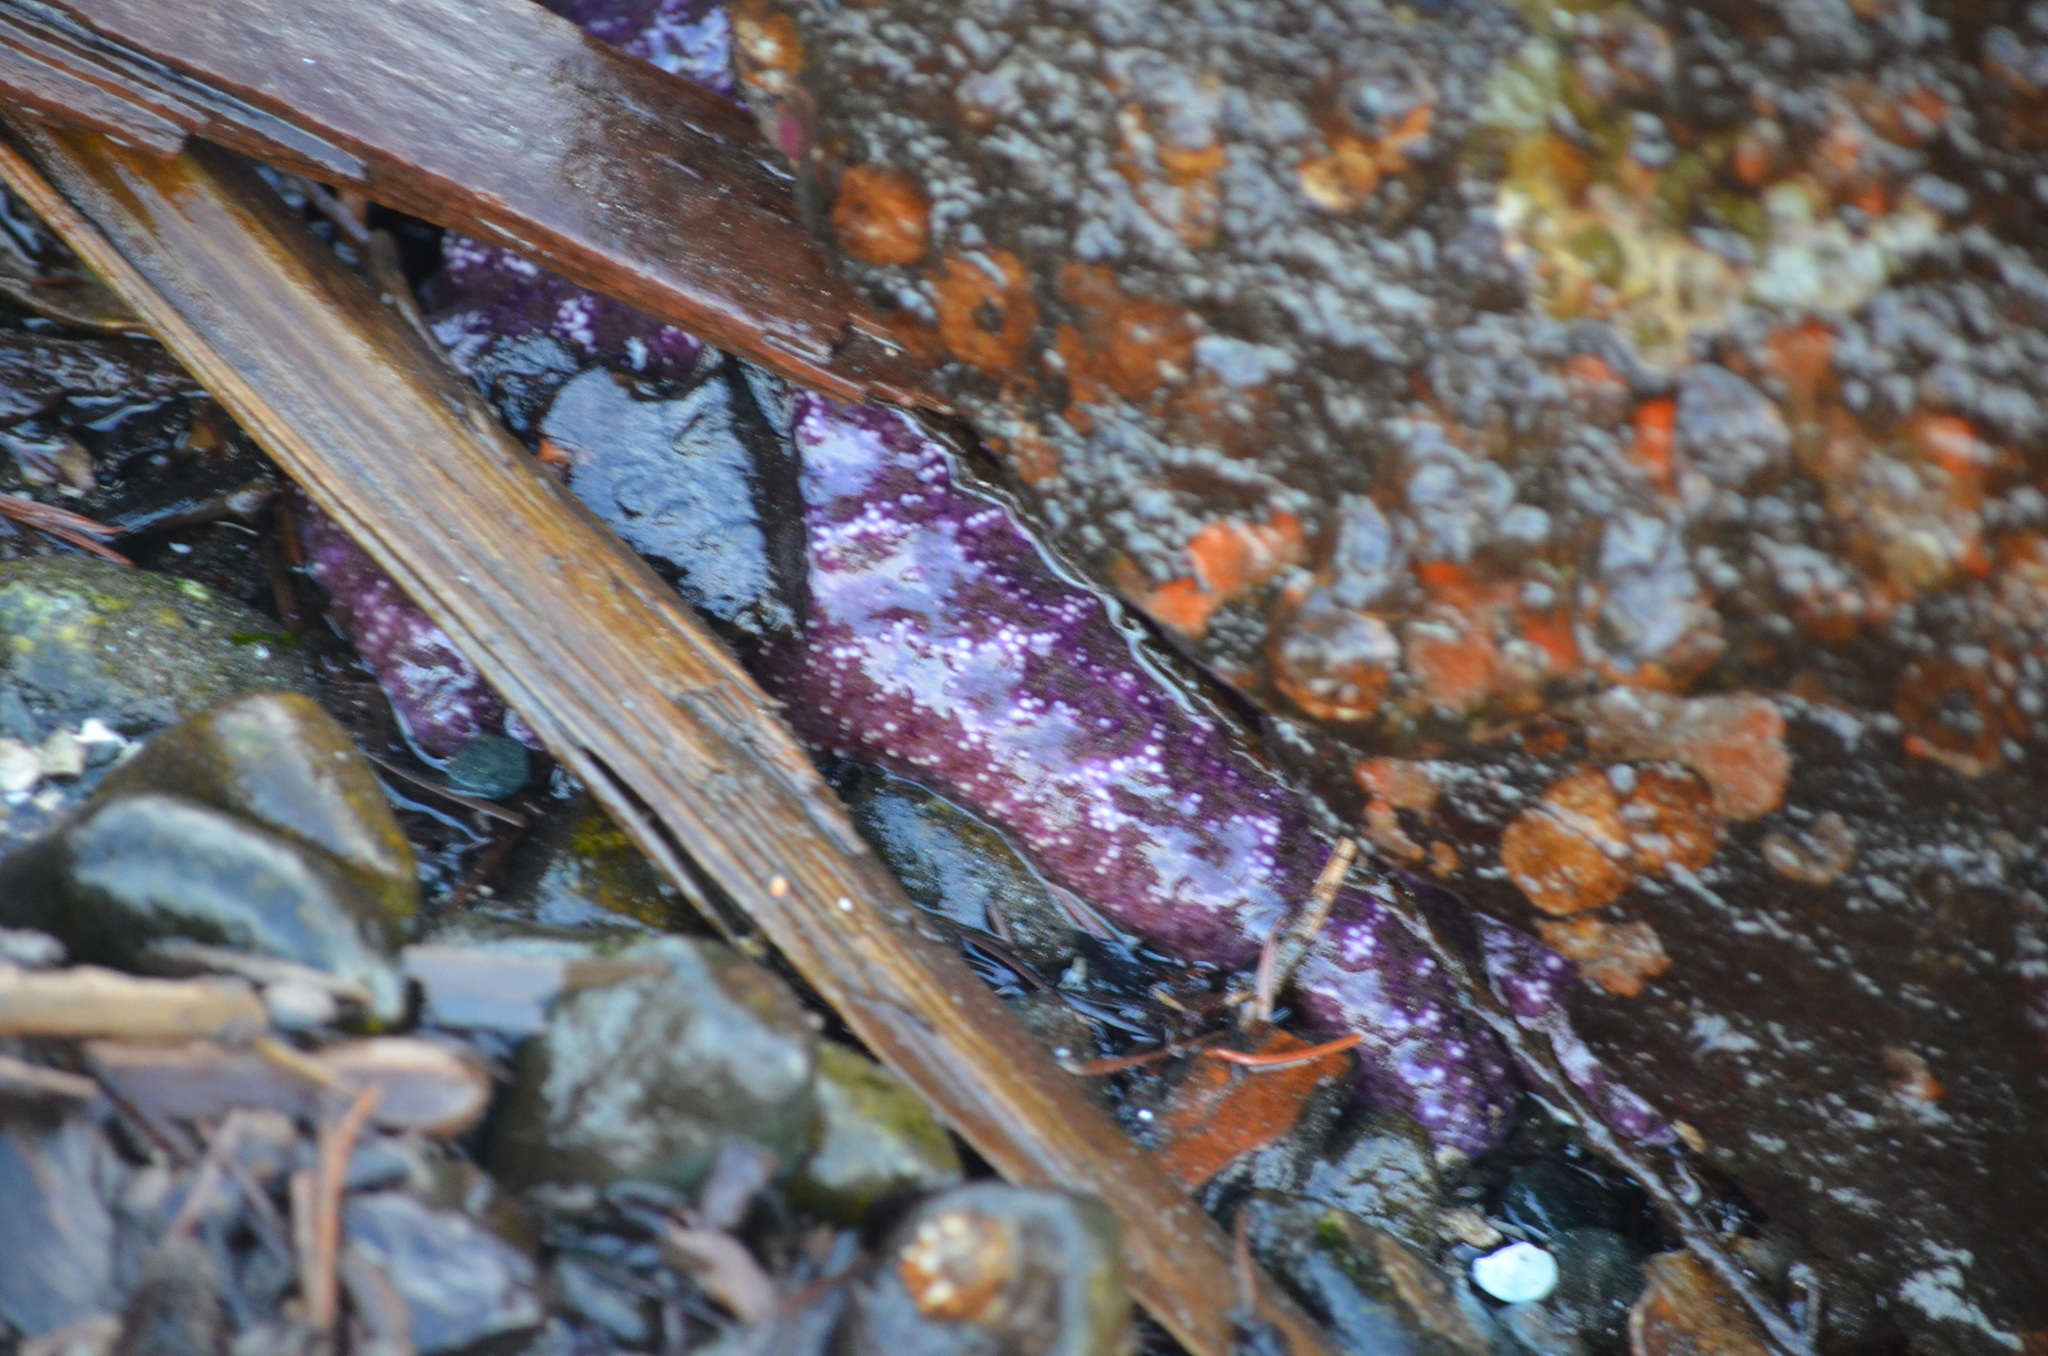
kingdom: Animalia
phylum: Echinodermata
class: Asteroidea
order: Forcipulatida
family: Asteriidae
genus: Pisaster
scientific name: Pisaster ochraceus
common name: Ochre stars
